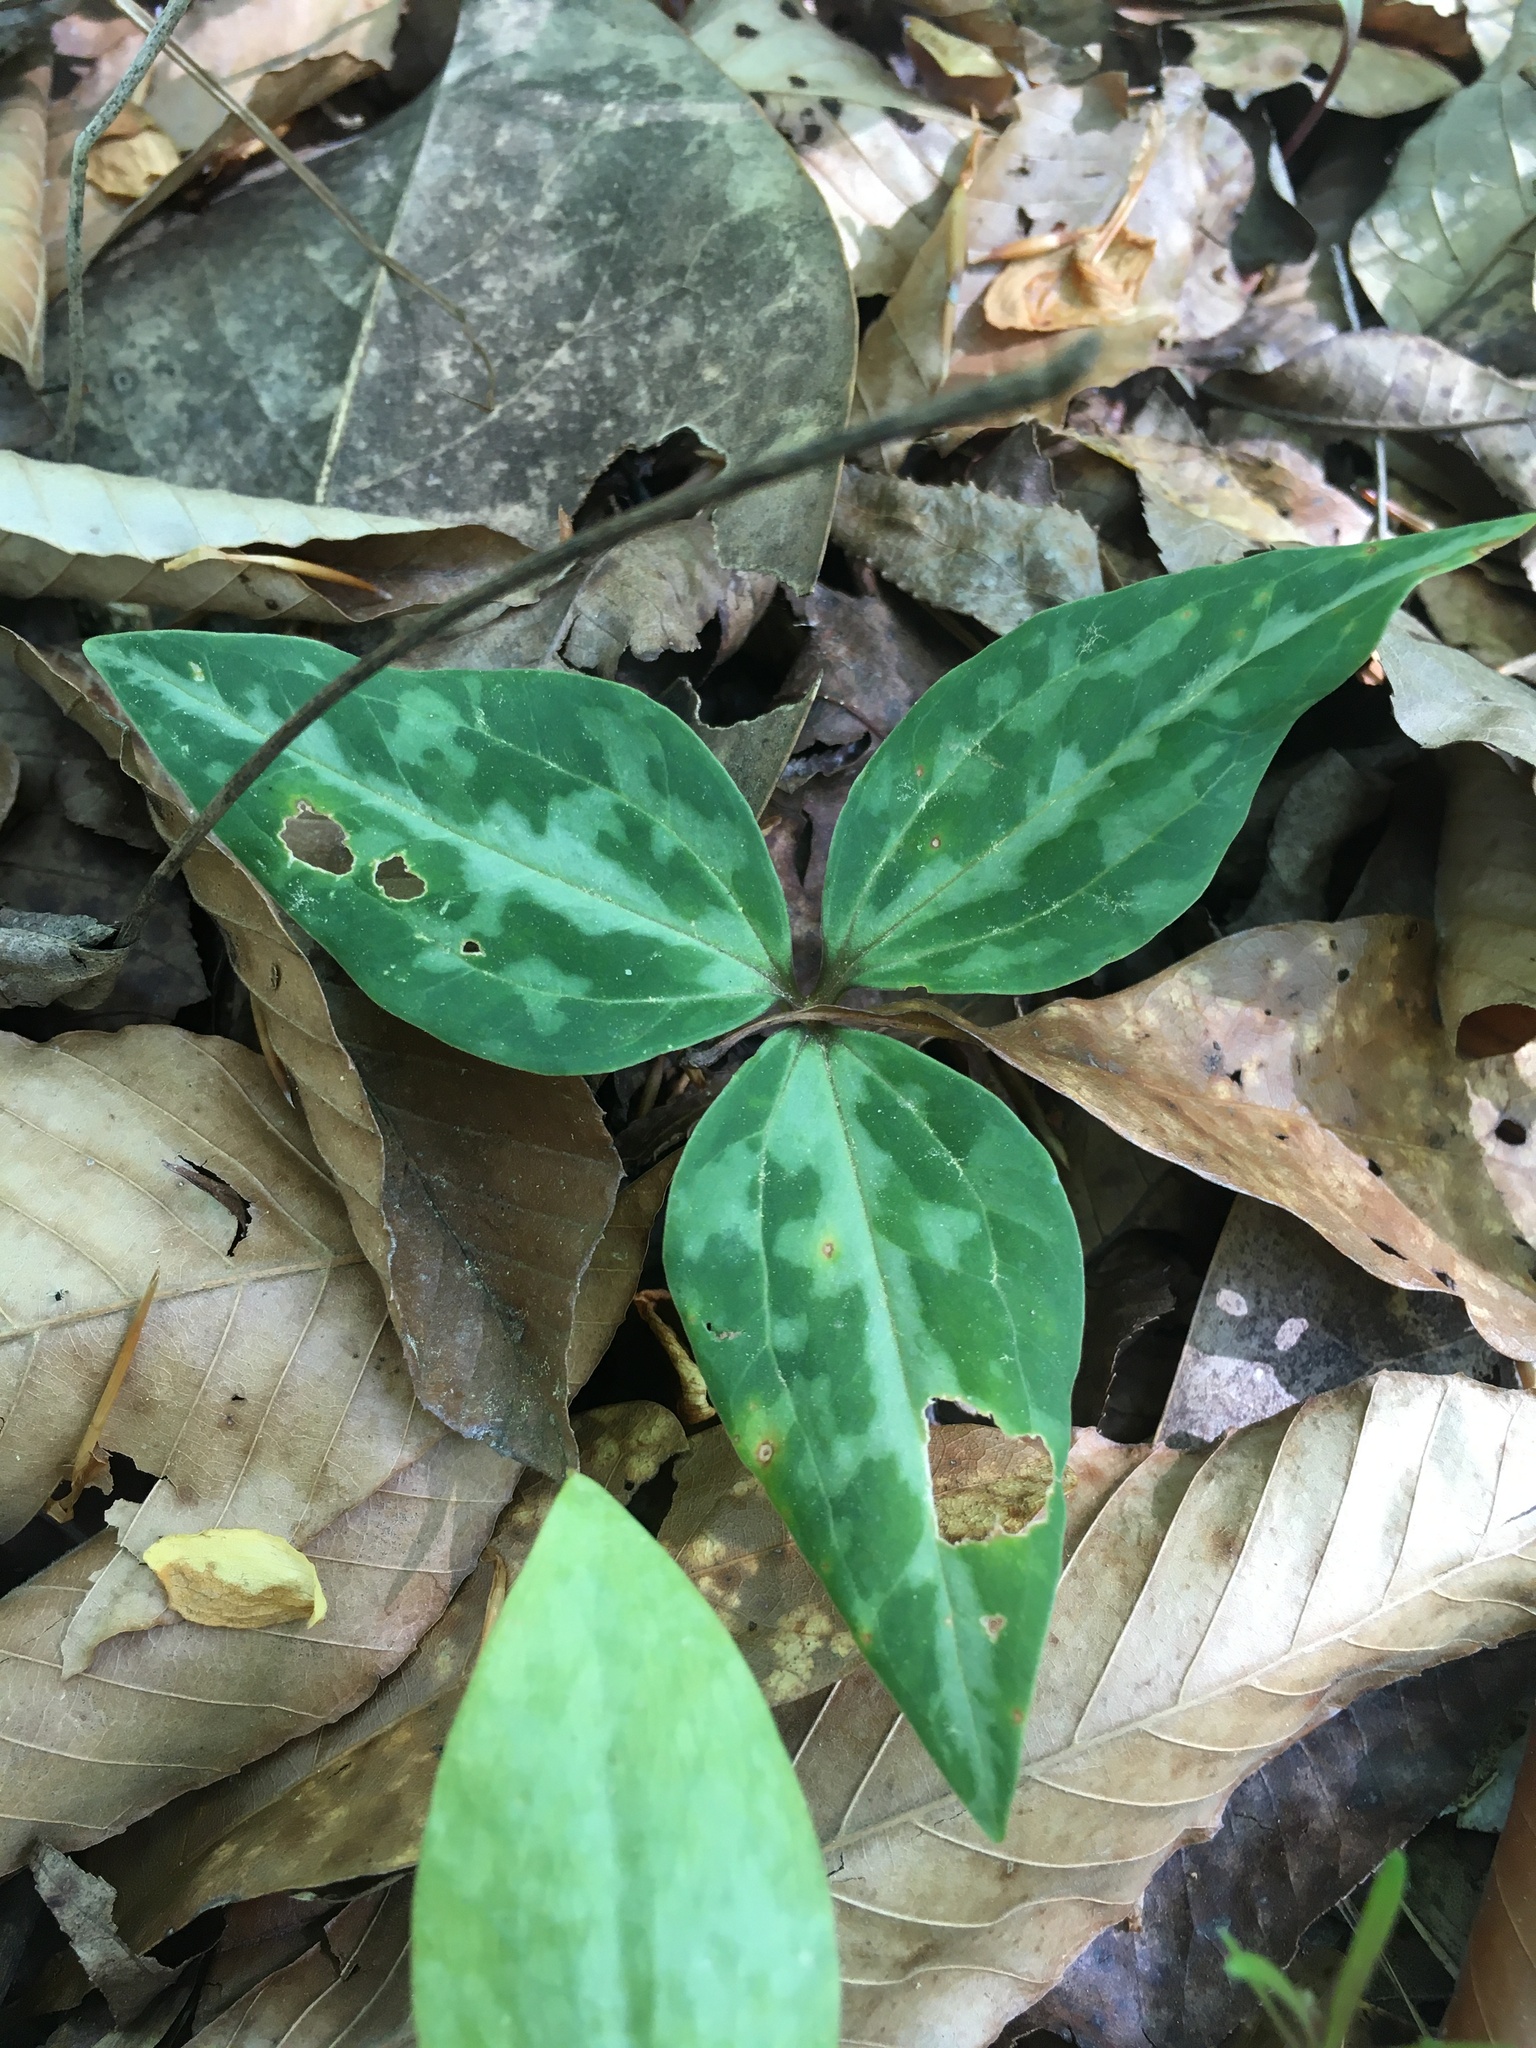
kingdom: Plantae
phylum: Tracheophyta
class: Liliopsida
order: Liliales
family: Melanthiaceae
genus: Trillium
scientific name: Trillium underwoodii
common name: Longbract wakerobin
